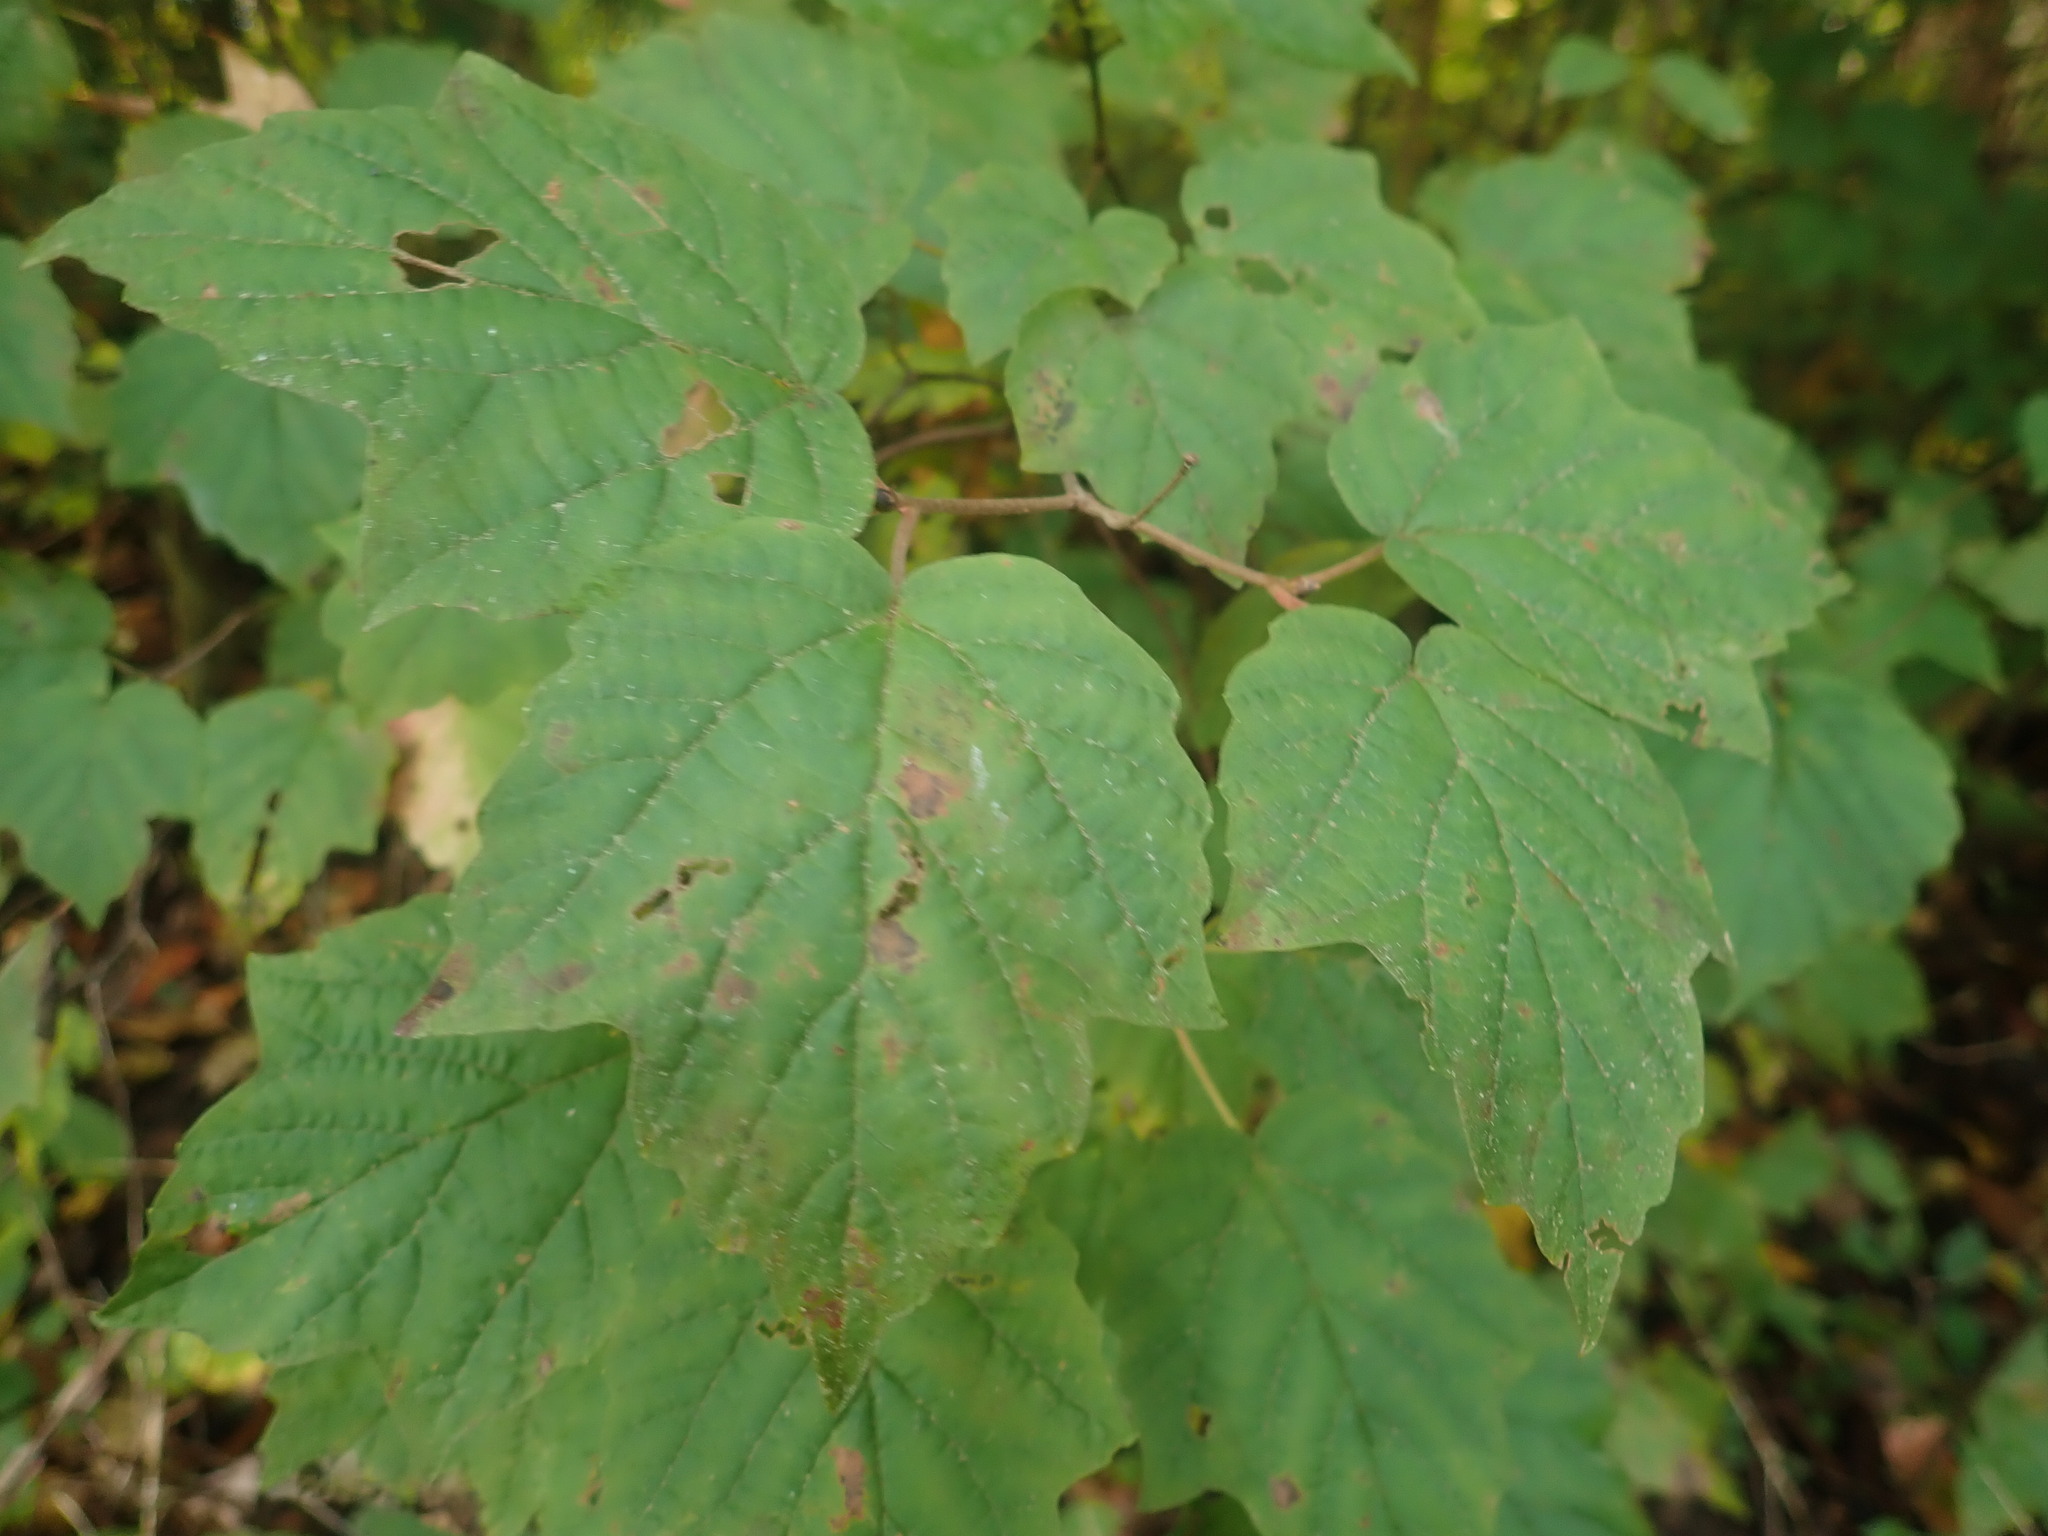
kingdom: Plantae
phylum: Tracheophyta
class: Magnoliopsida
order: Dipsacales
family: Viburnaceae
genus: Viburnum
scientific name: Viburnum acerifolium
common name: Dockmackie
